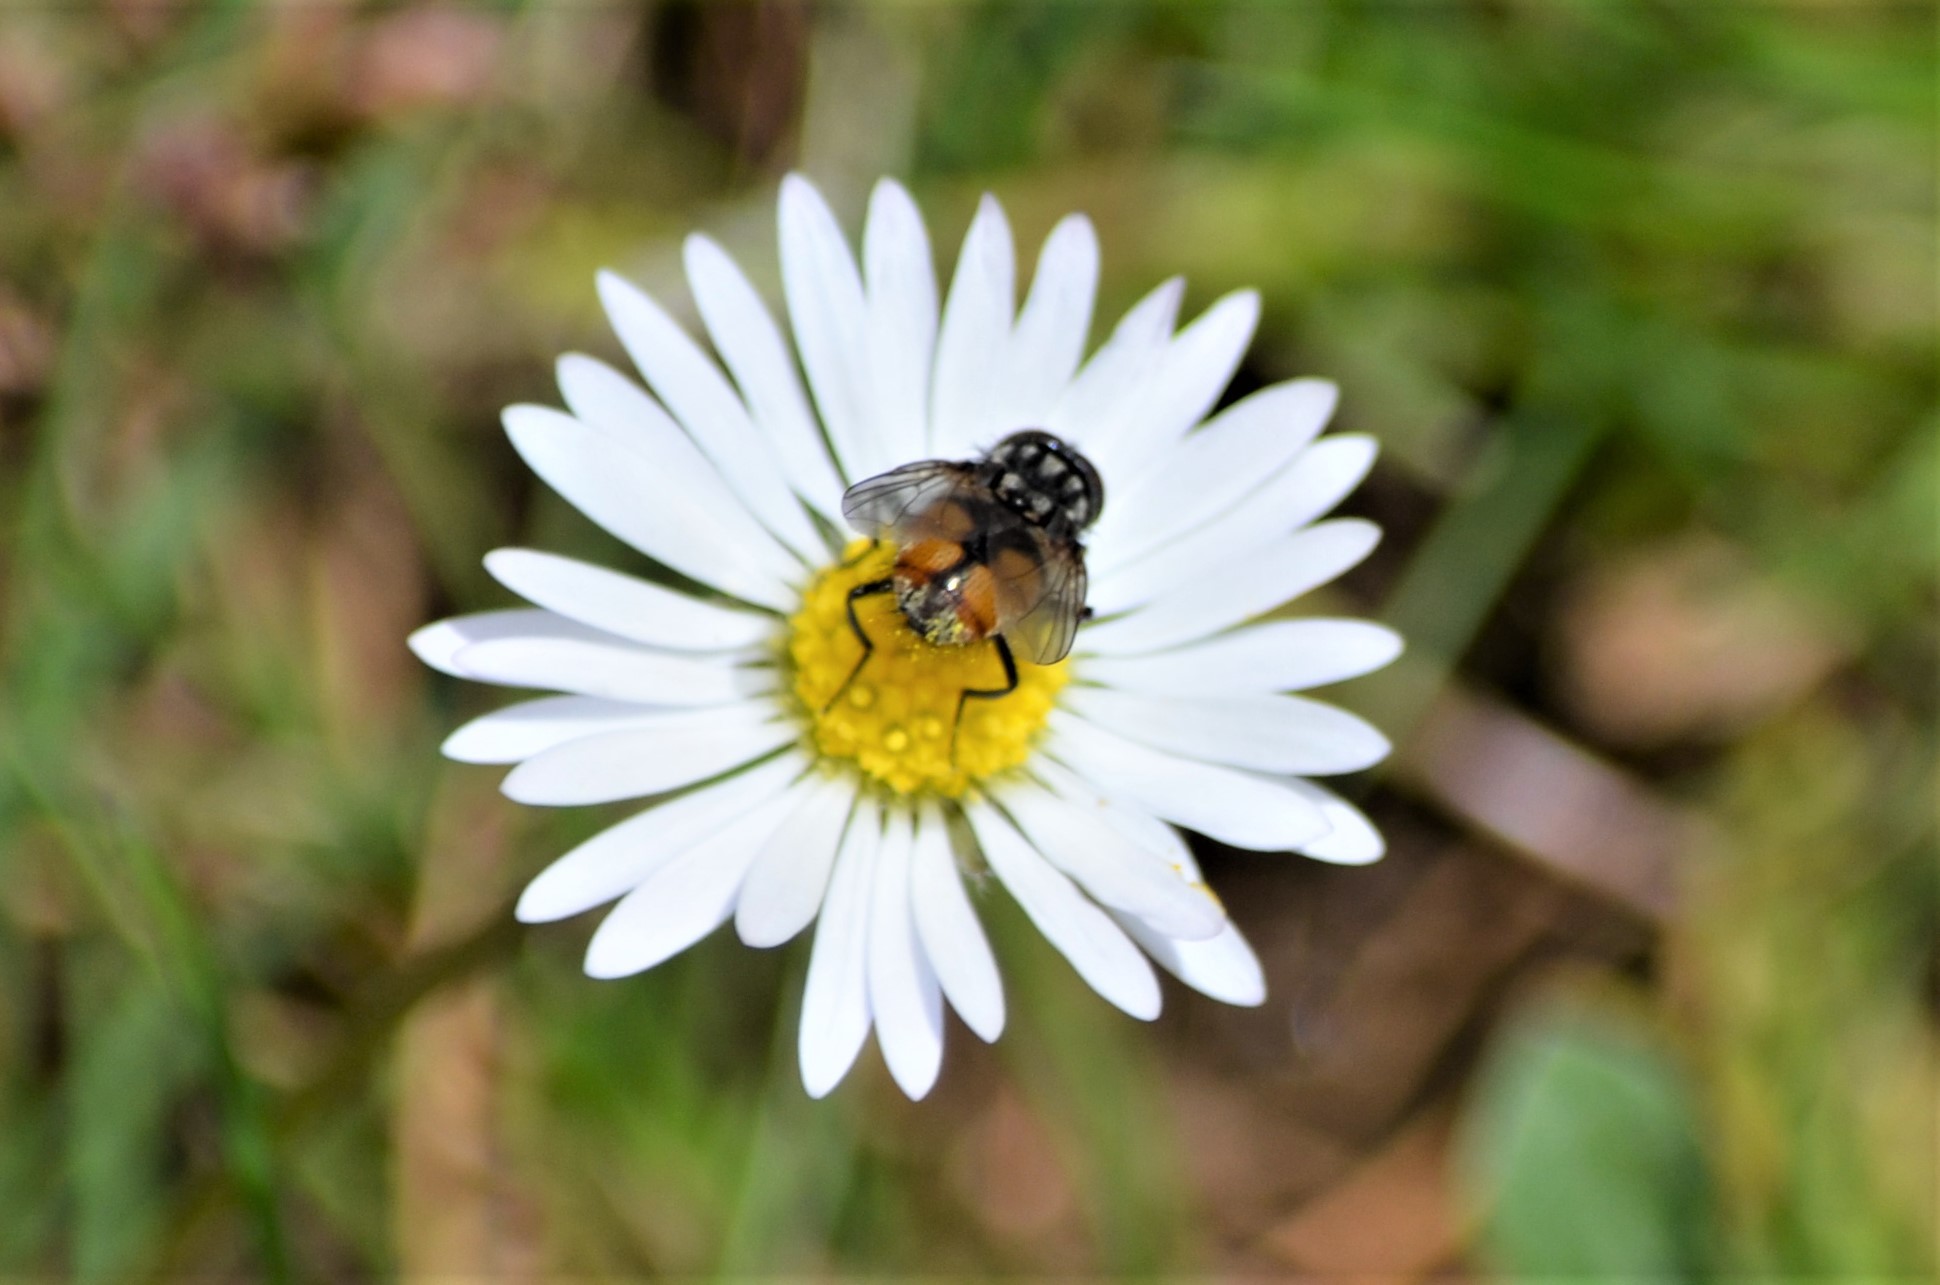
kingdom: Animalia
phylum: Arthropoda
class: Insecta
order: Diptera
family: Muscidae
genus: Musca
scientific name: Musca autumnalis
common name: Face fly
